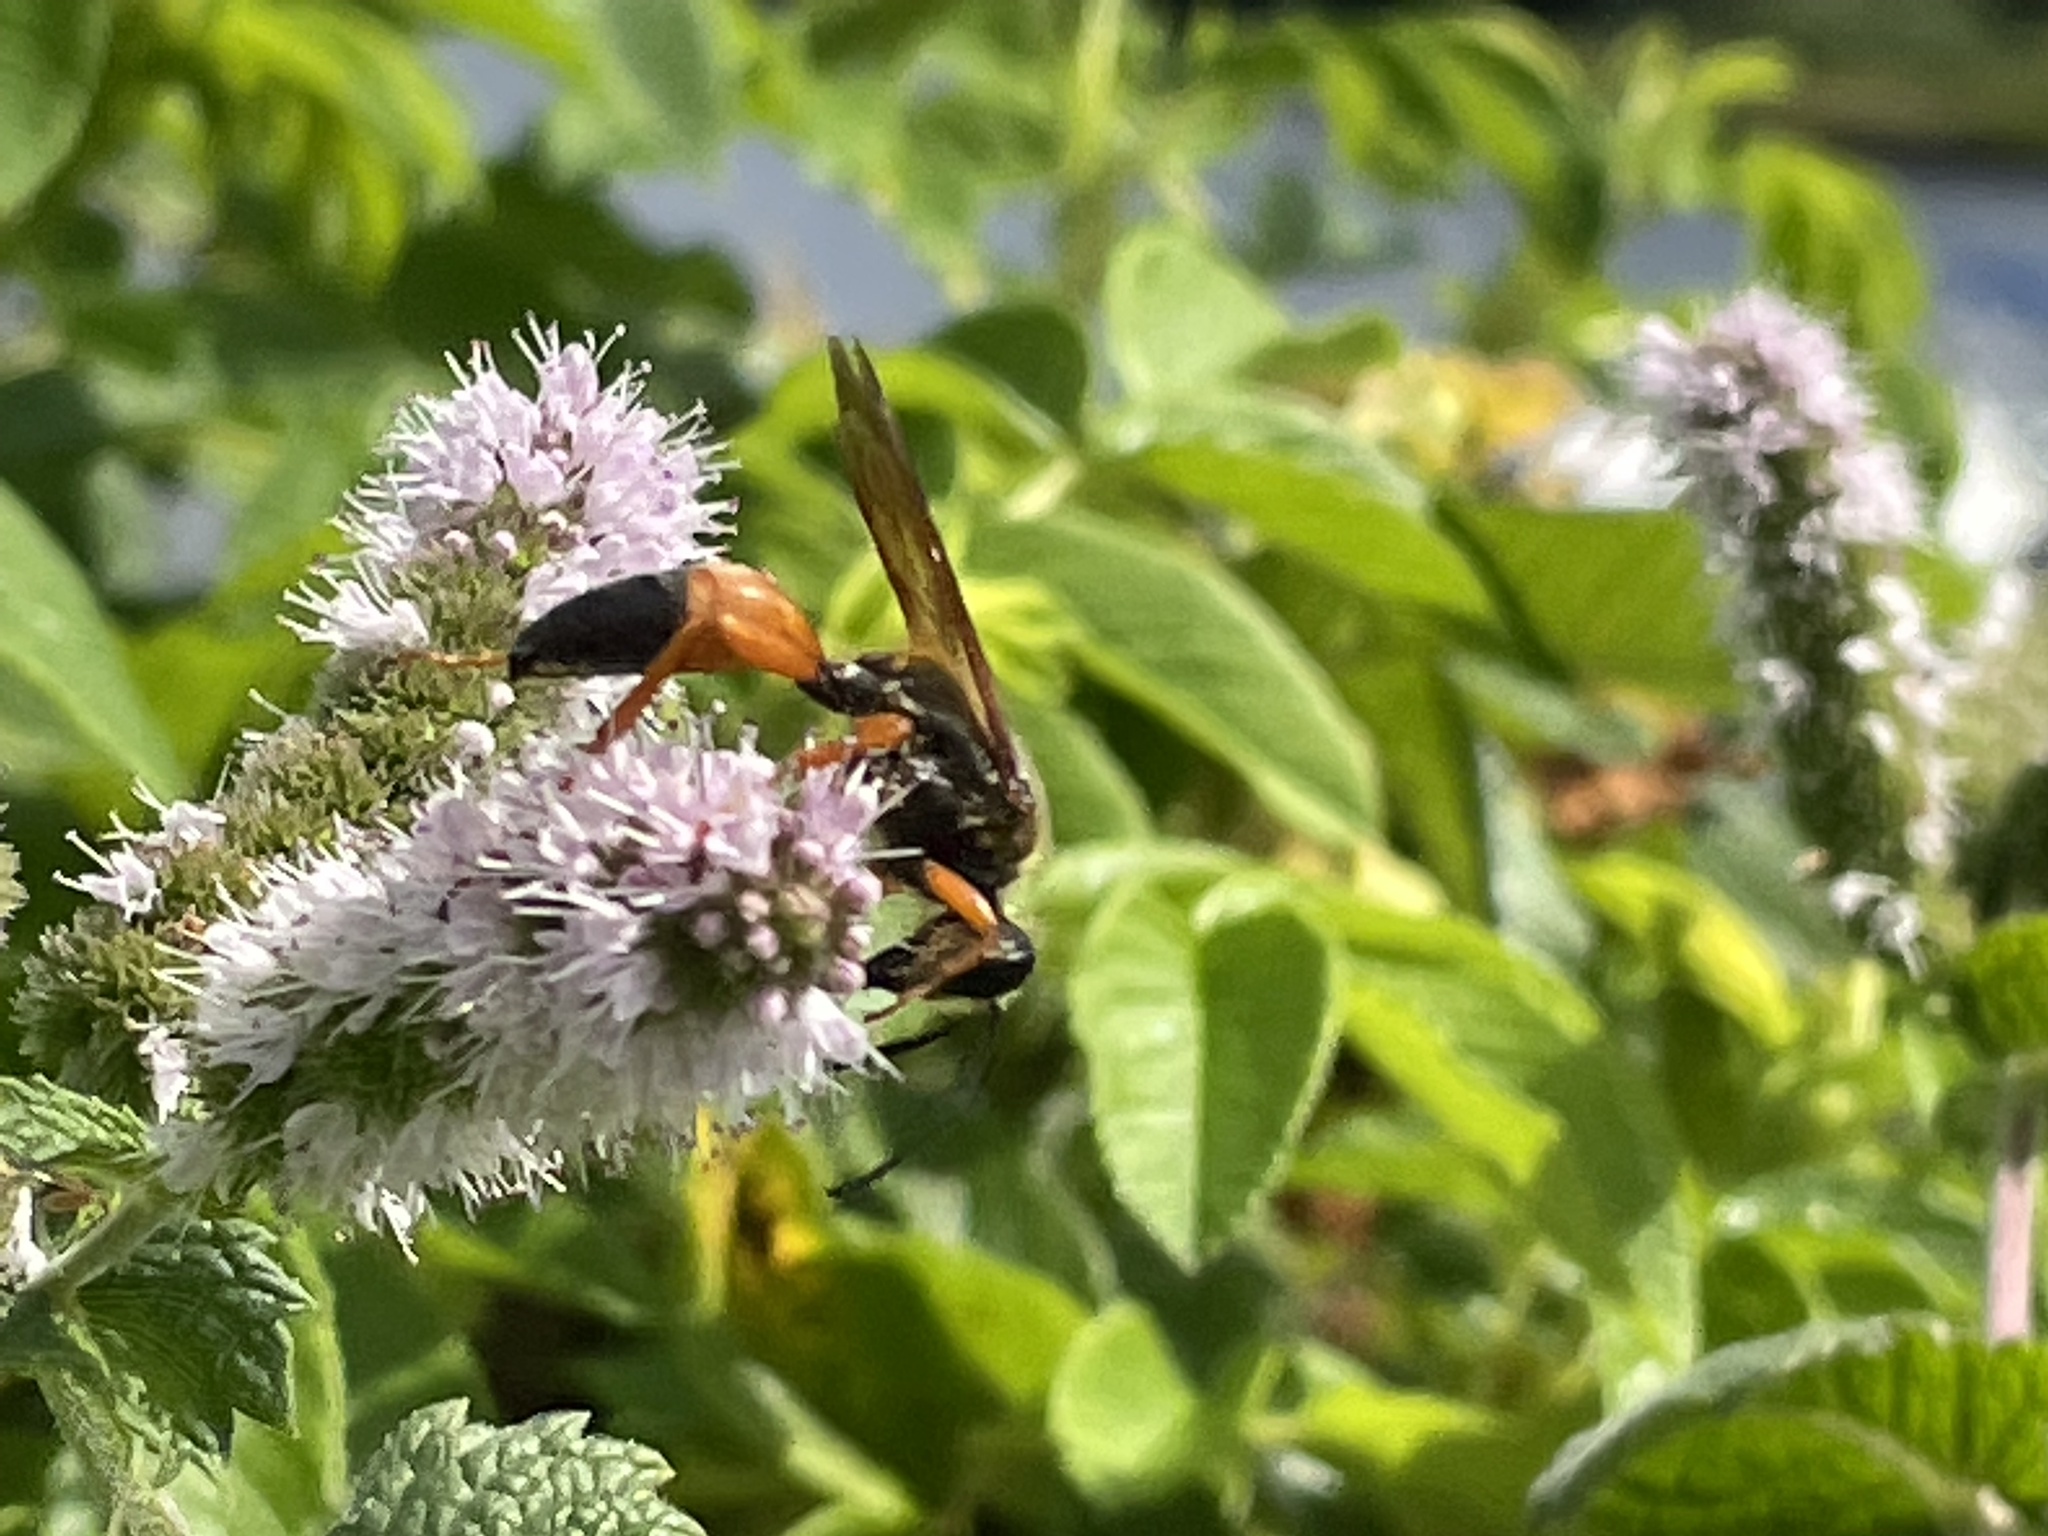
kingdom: Animalia
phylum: Arthropoda
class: Insecta
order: Hymenoptera
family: Sphecidae
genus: Sphex
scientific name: Sphex ichneumoneus
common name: Great golden digger wasp
